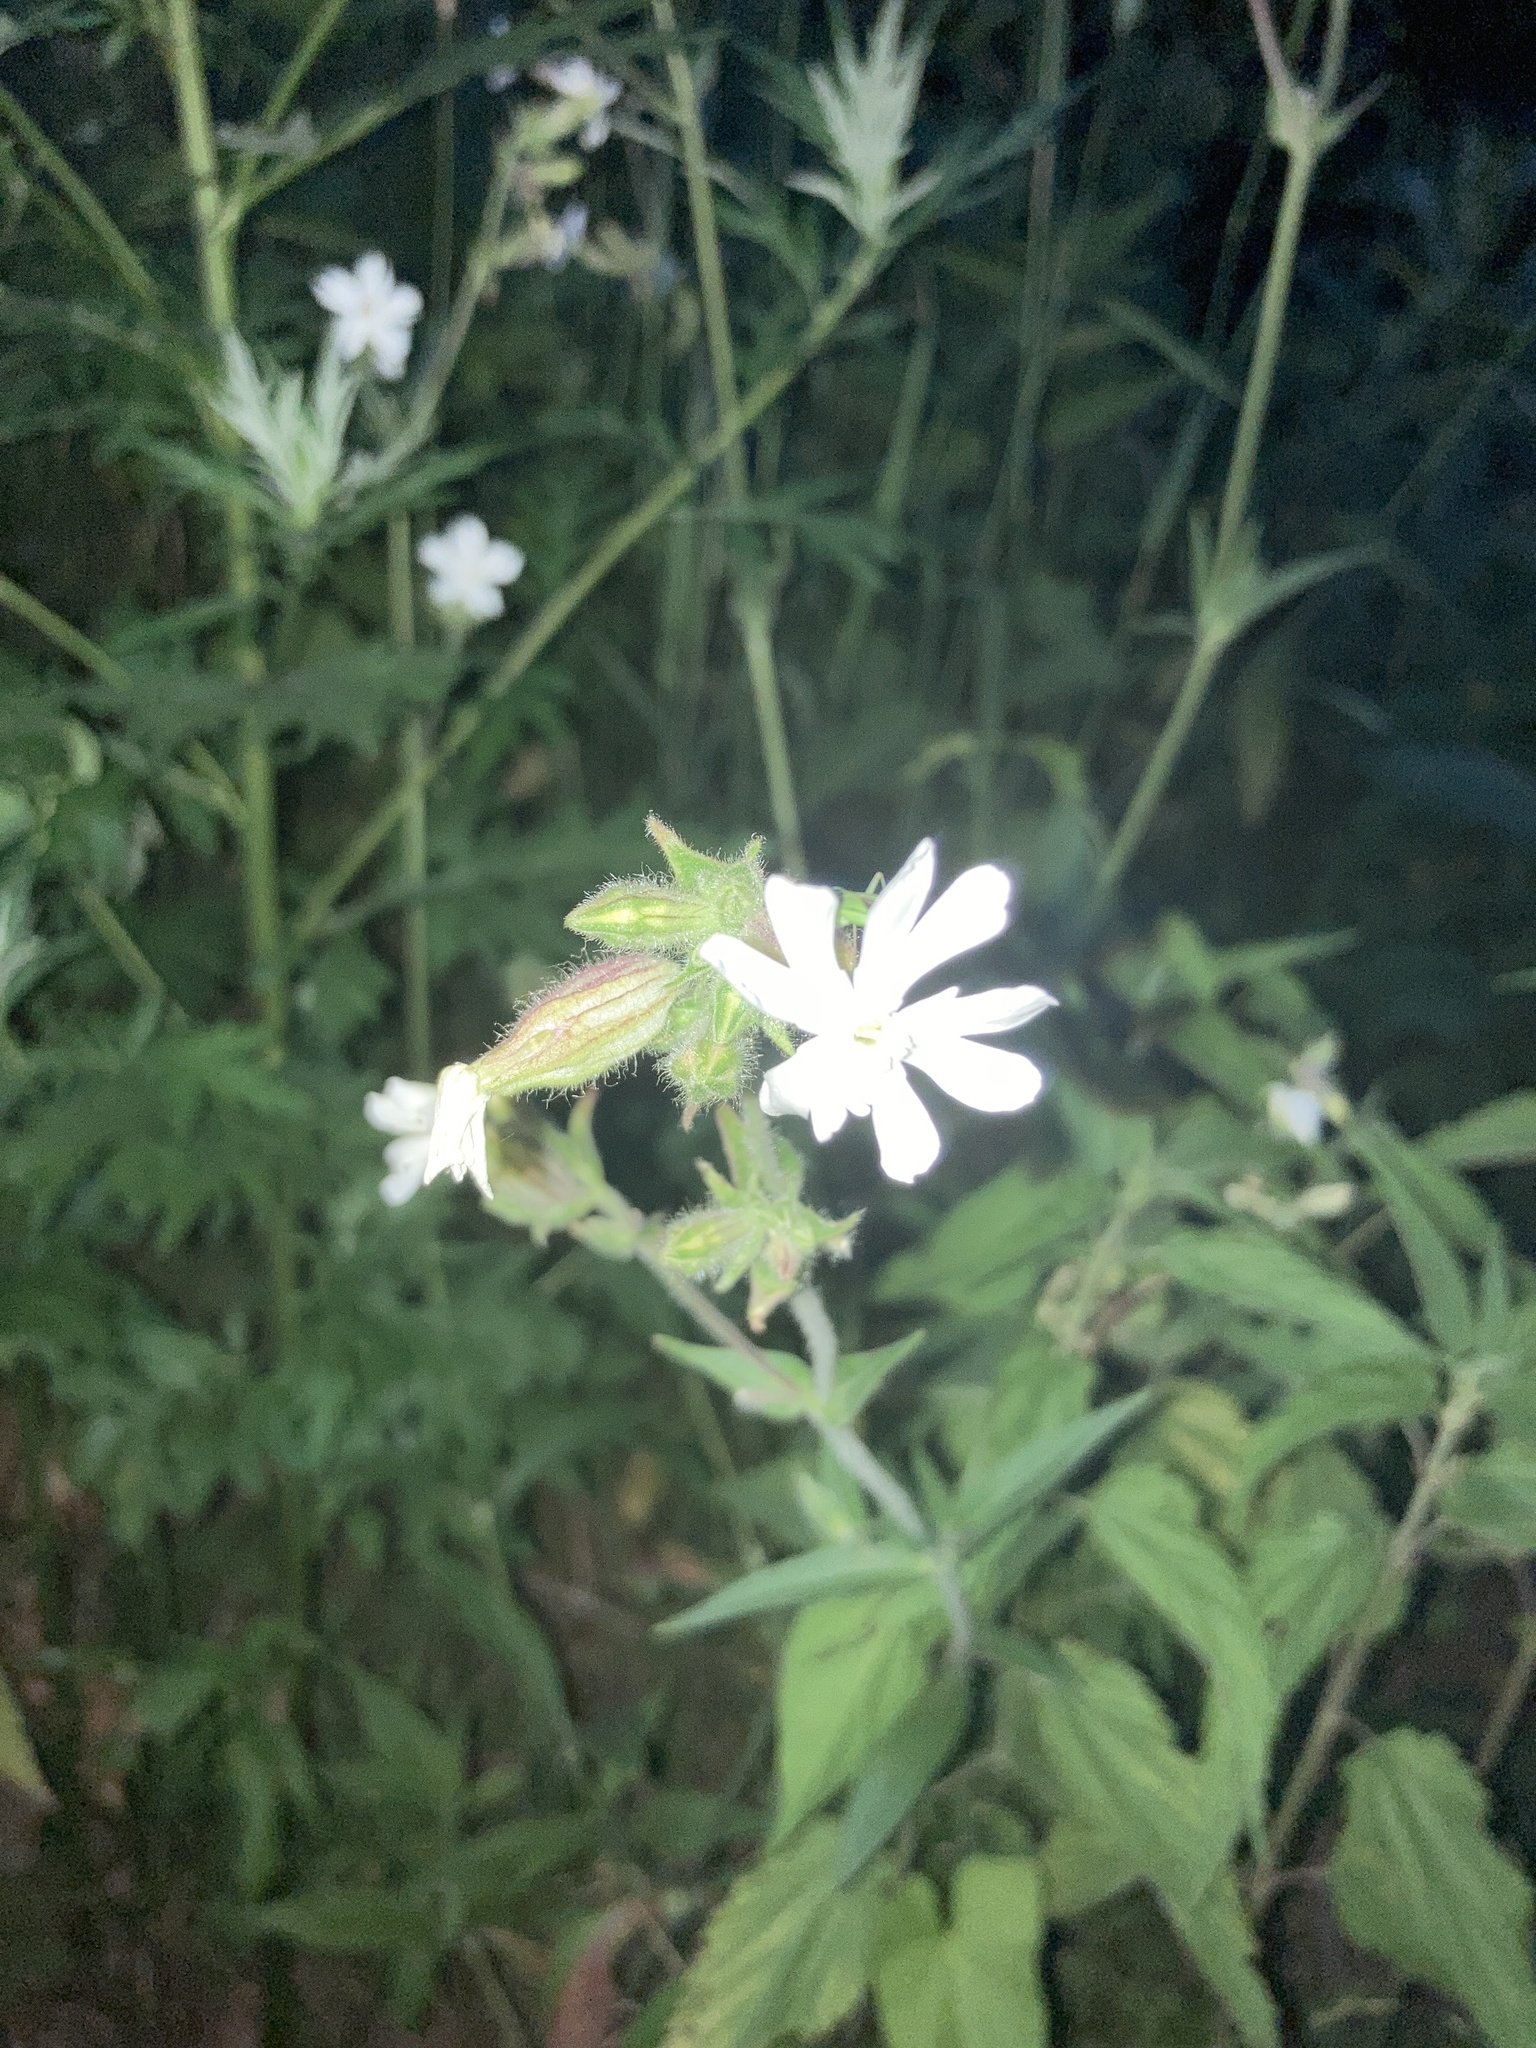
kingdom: Plantae
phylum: Tracheophyta
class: Magnoliopsida
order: Caryophyllales
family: Caryophyllaceae
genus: Silene
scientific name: Silene latifolia
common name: White campion
